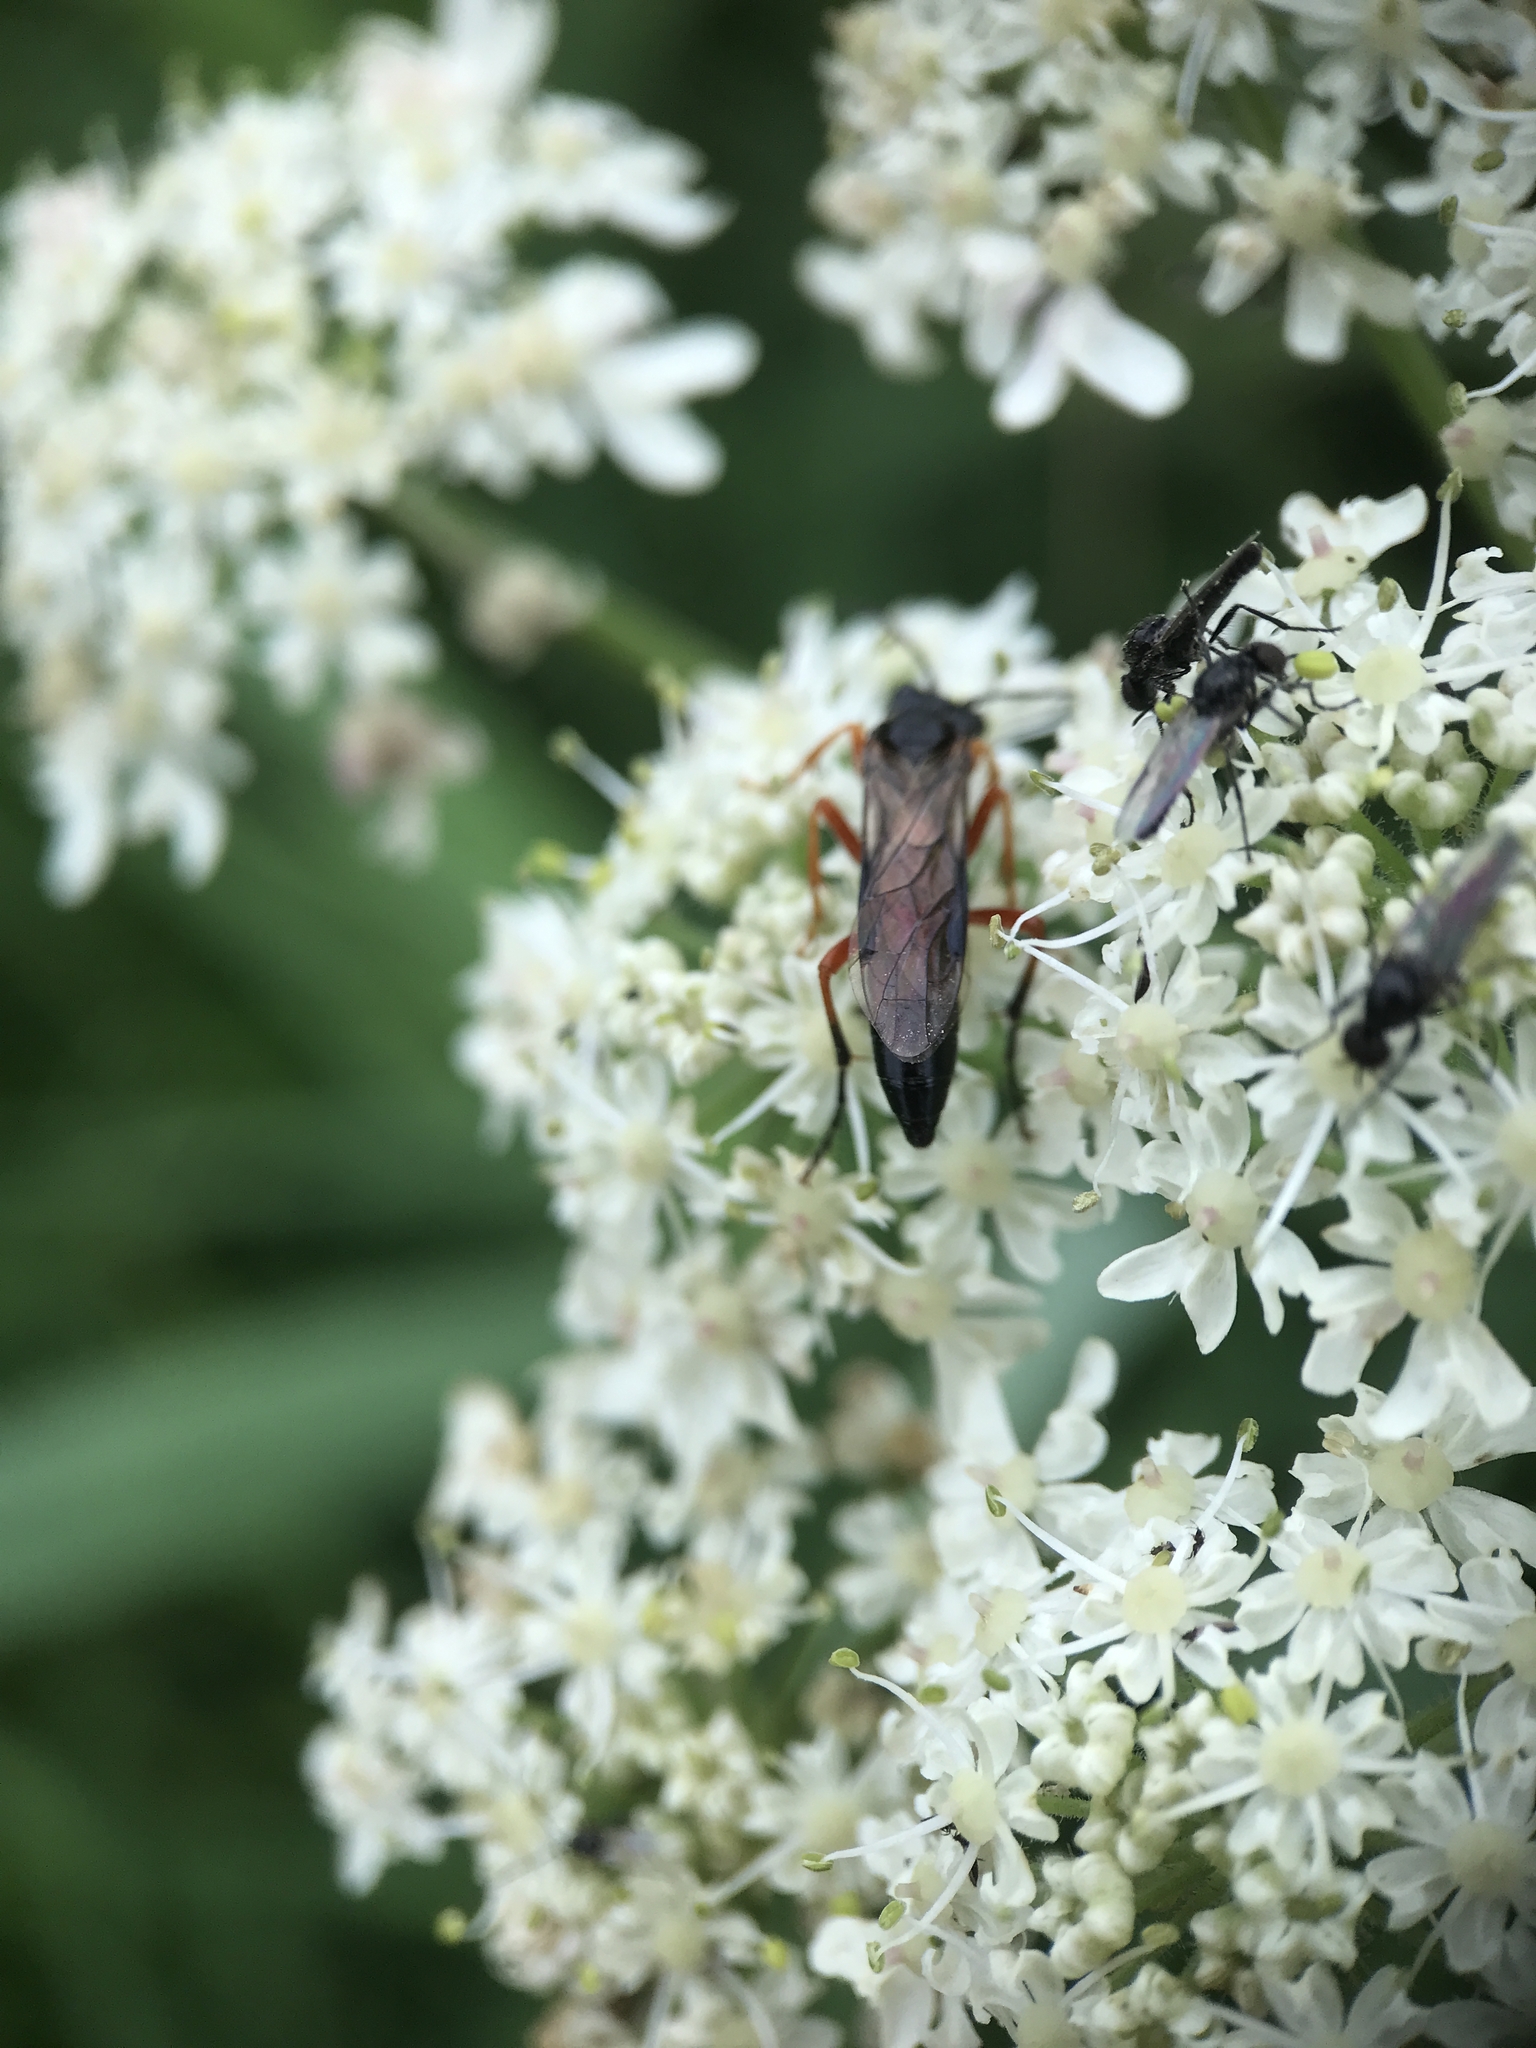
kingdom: Animalia
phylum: Arthropoda
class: Insecta
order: Hymenoptera
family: Tenthredinidae
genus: Tenthredo
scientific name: Tenthredo atra
